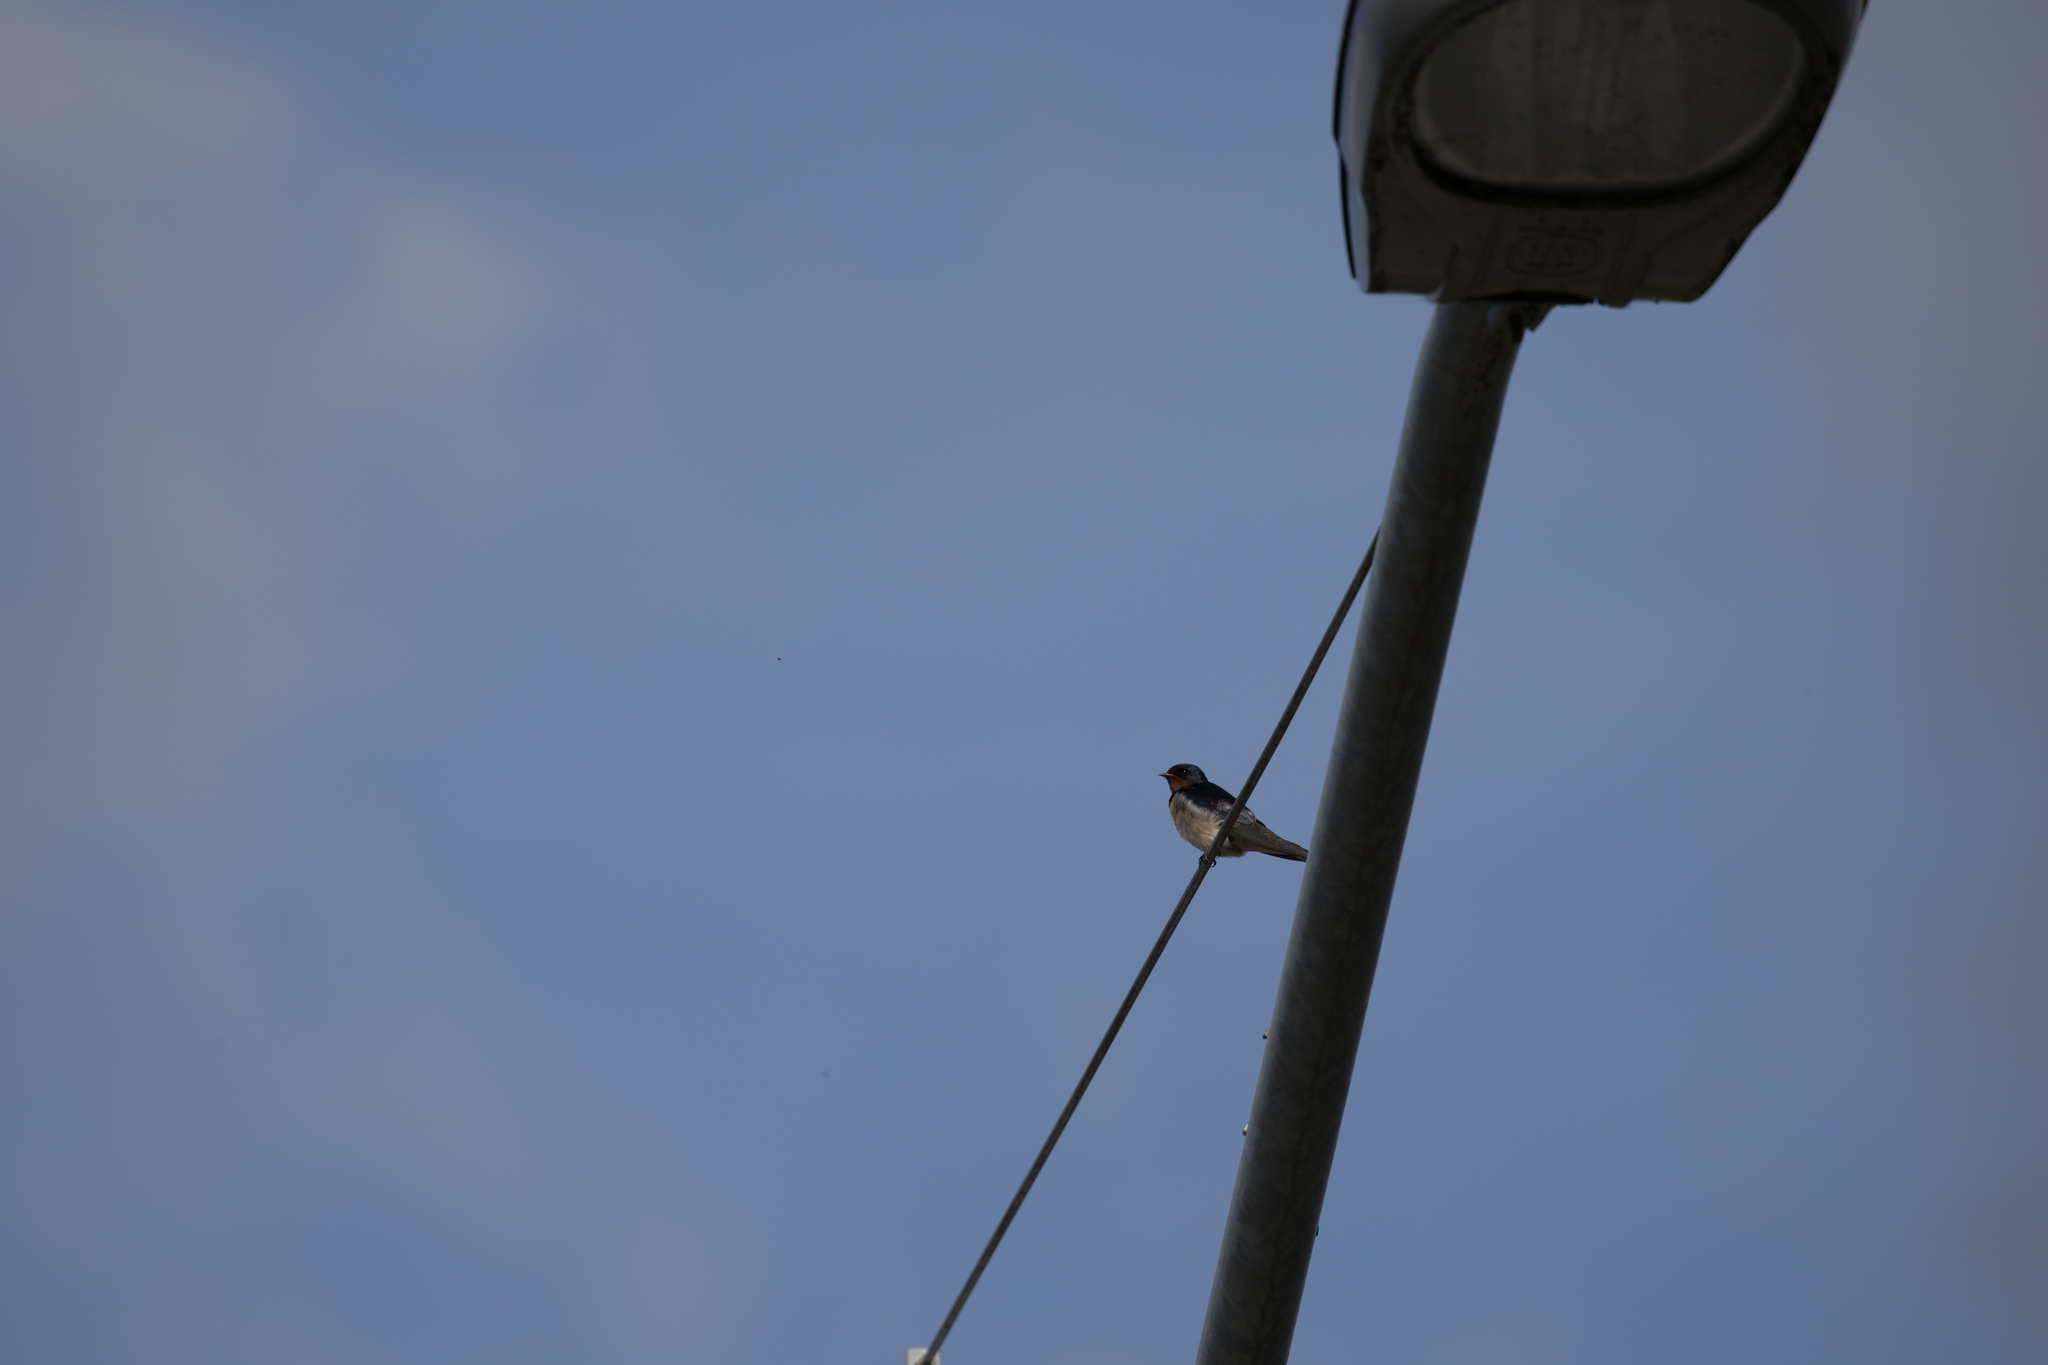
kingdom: Animalia
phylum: Chordata
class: Aves
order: Passeriformes
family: Hirundinidae
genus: Hirundo
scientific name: Hirundo rustica
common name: Barn swallow
